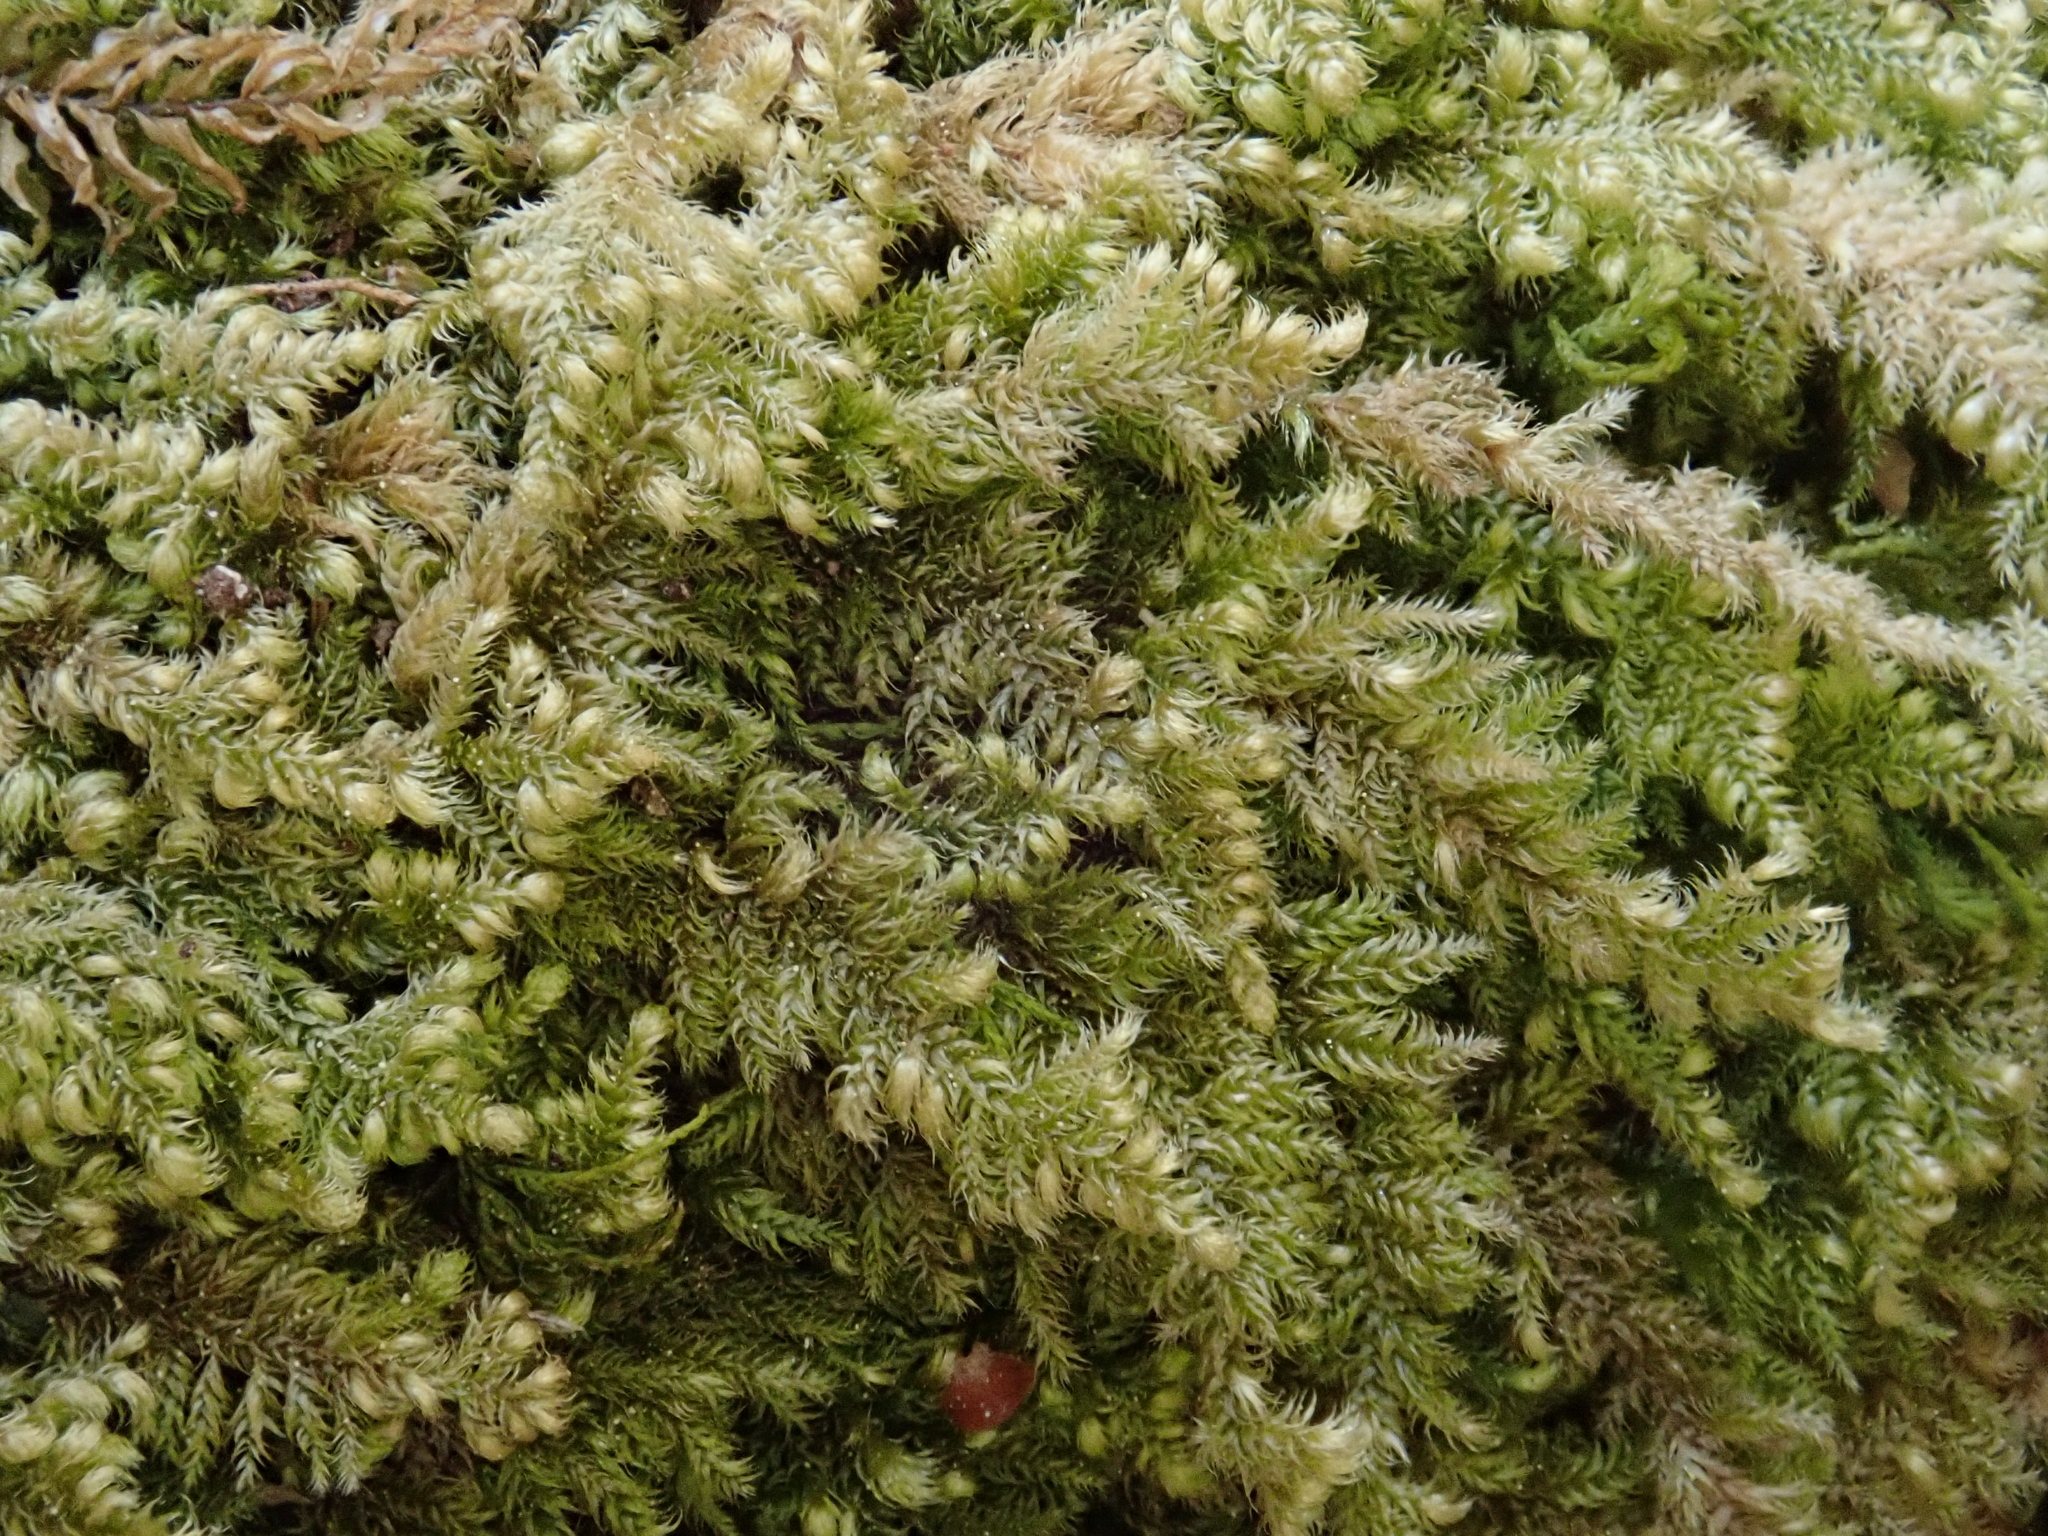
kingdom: Plantae
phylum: Bryophyta
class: Bryopsida
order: Hypnales
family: Myuriaceae
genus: Ctenidium
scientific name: Ctenidium molluscum
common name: Chalk comb-moss
